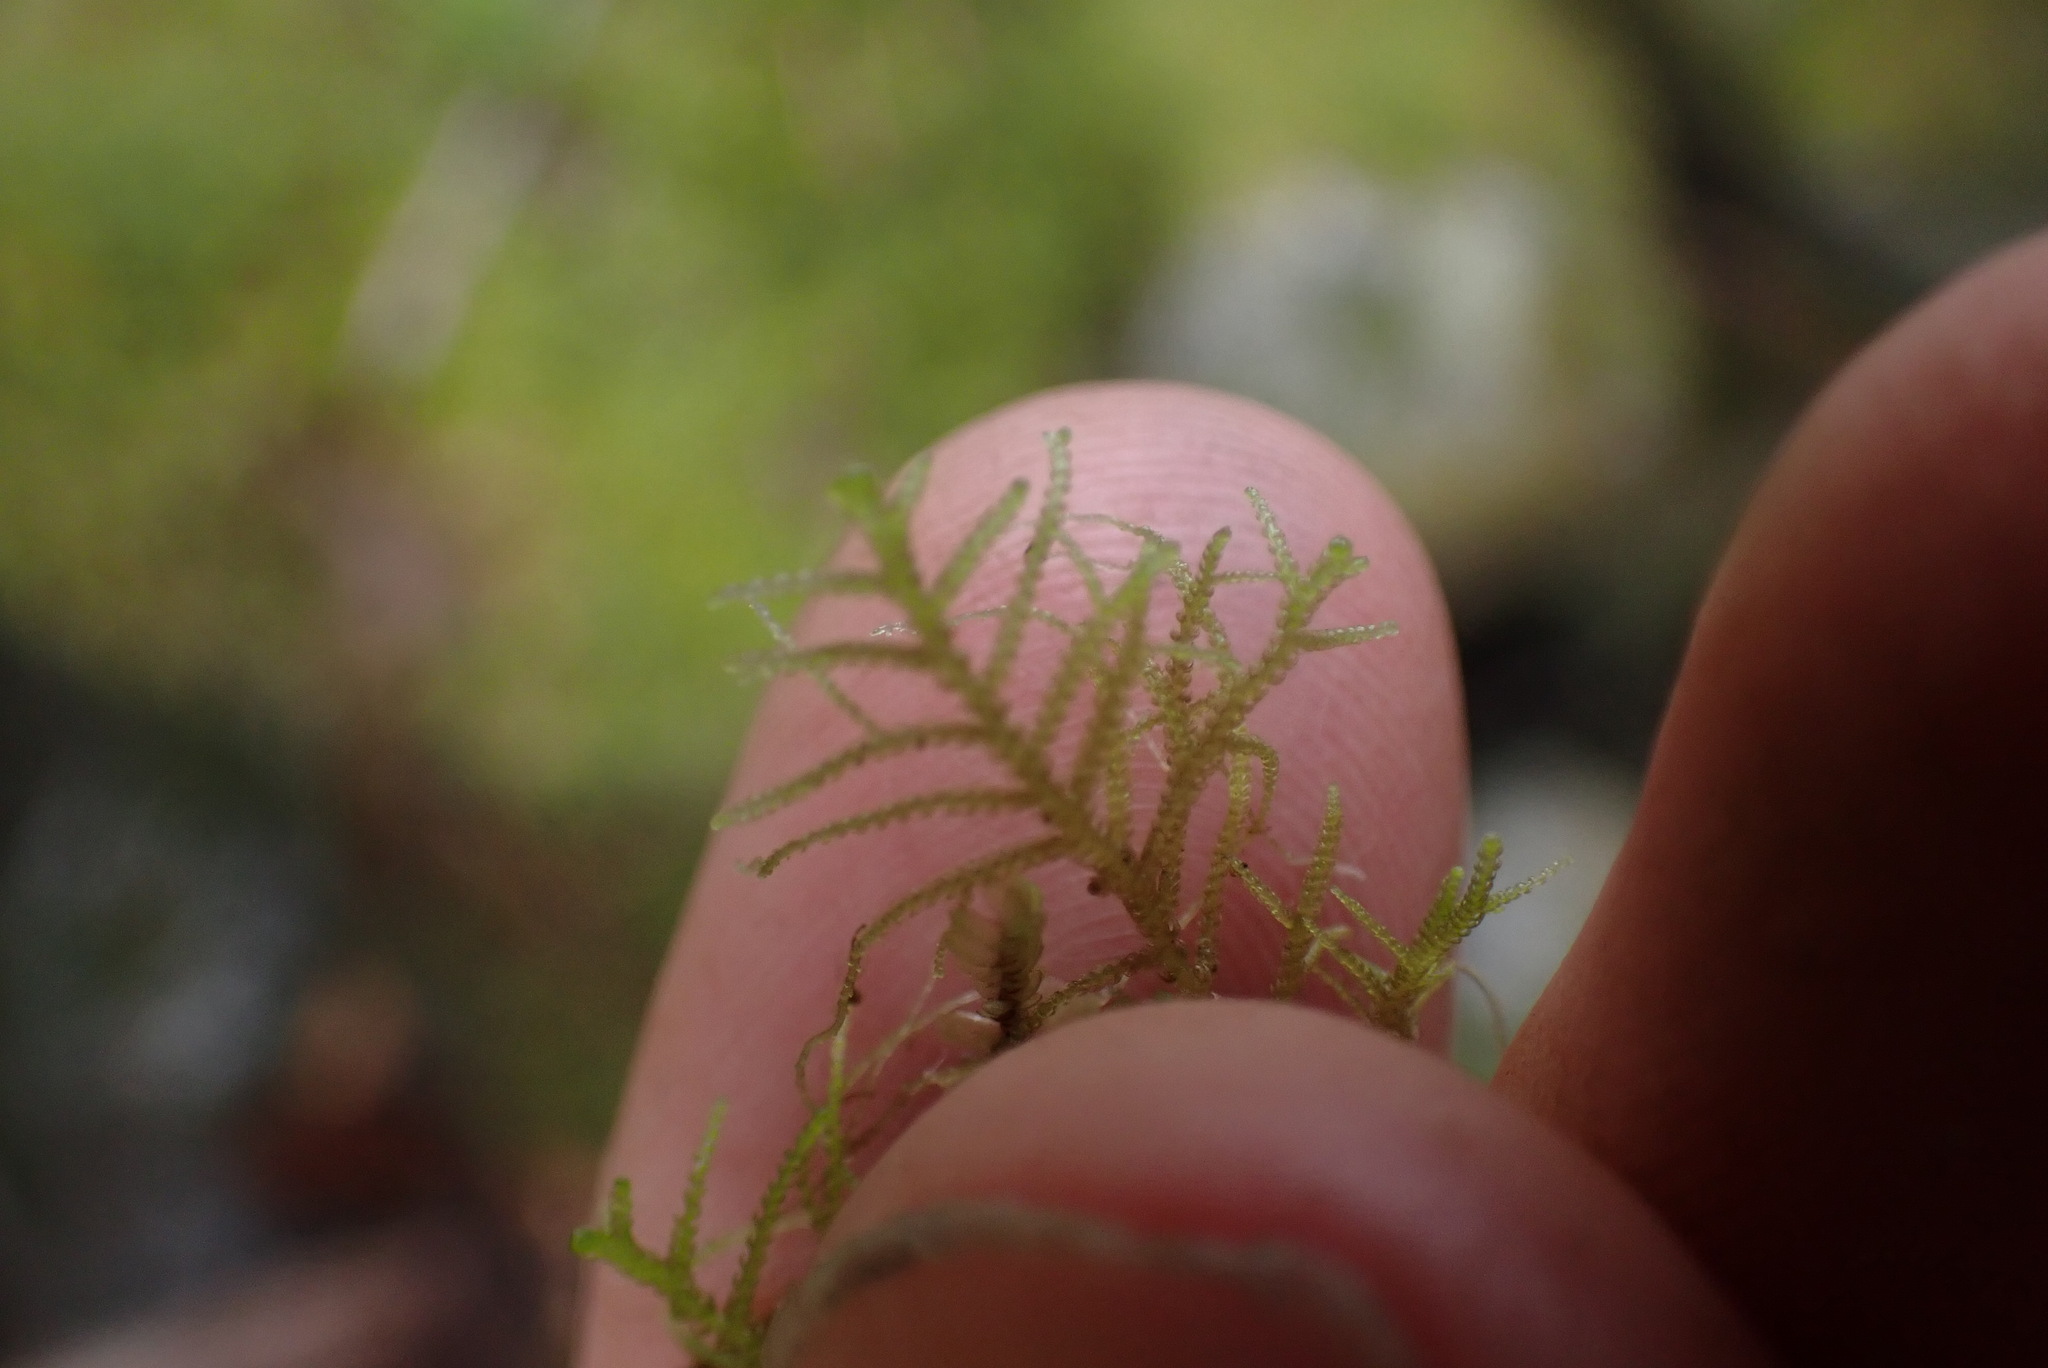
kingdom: Plantae
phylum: Marchantiophyta
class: Jungermanniopsida
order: Jungermanniales
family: Lepidoziaceae
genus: Lepidozia
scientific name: Lepidozia filamentosa
